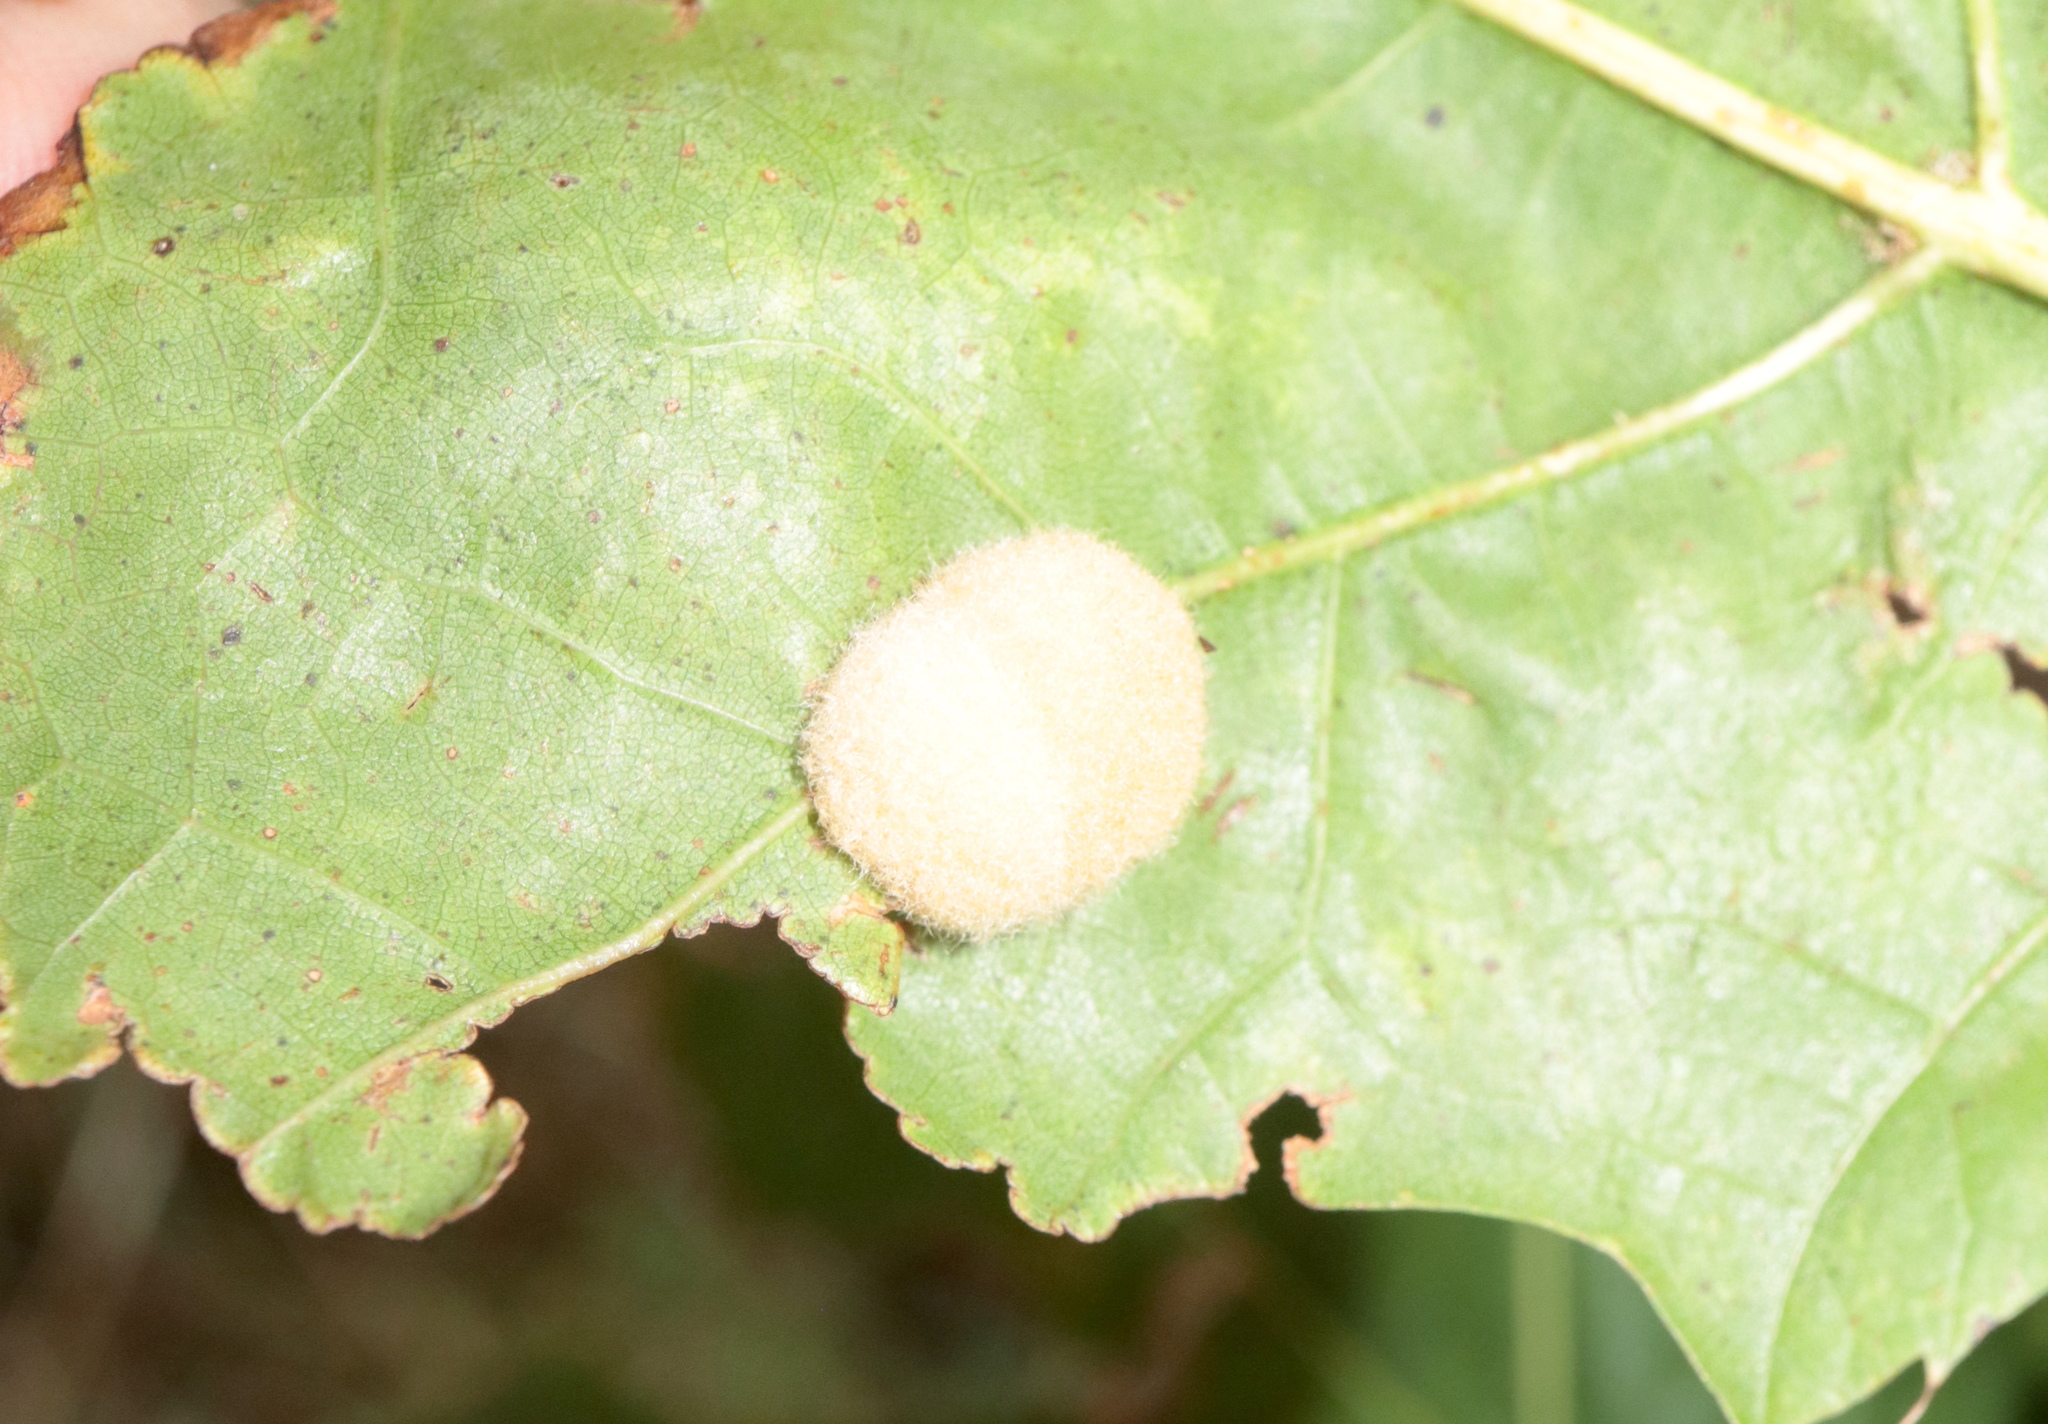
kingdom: Animalia
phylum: Arthropoda
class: Insecta
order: Hymenoptera
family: Cynipidae
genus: Callirhytis
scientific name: Callirhytis
